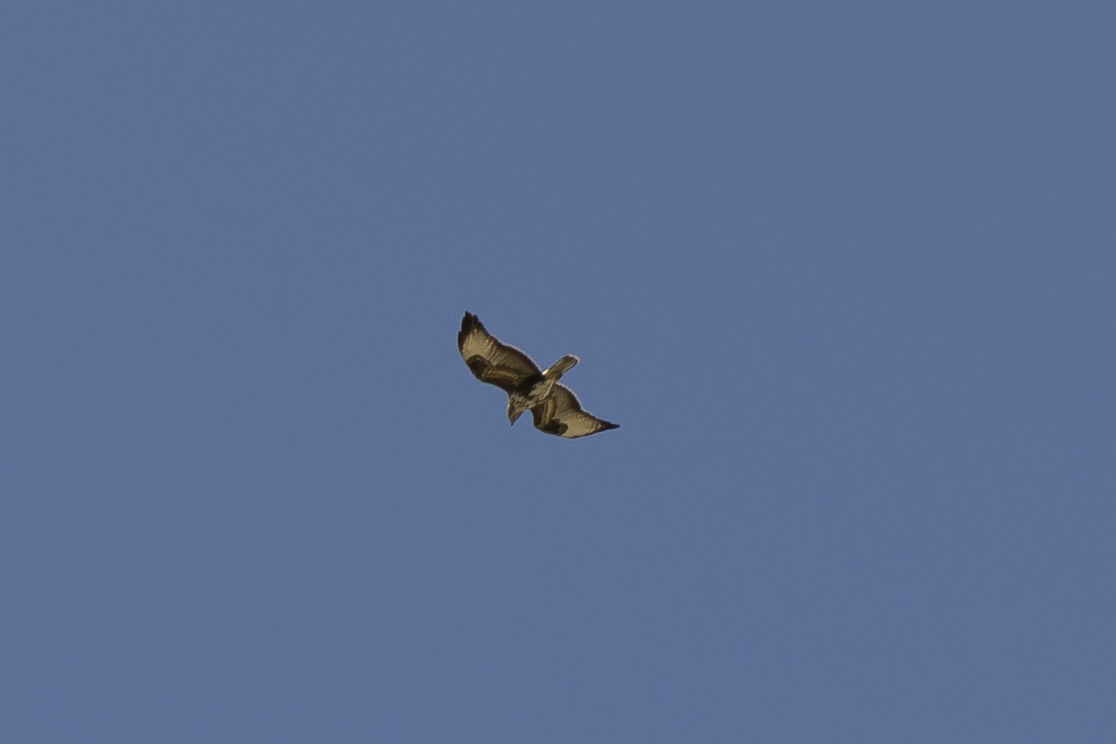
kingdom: Animalia
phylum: Chordata
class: Aves
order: Accipitriformes
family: Accipitridae
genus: Buteo
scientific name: Buteo buteo
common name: Common buzzard
